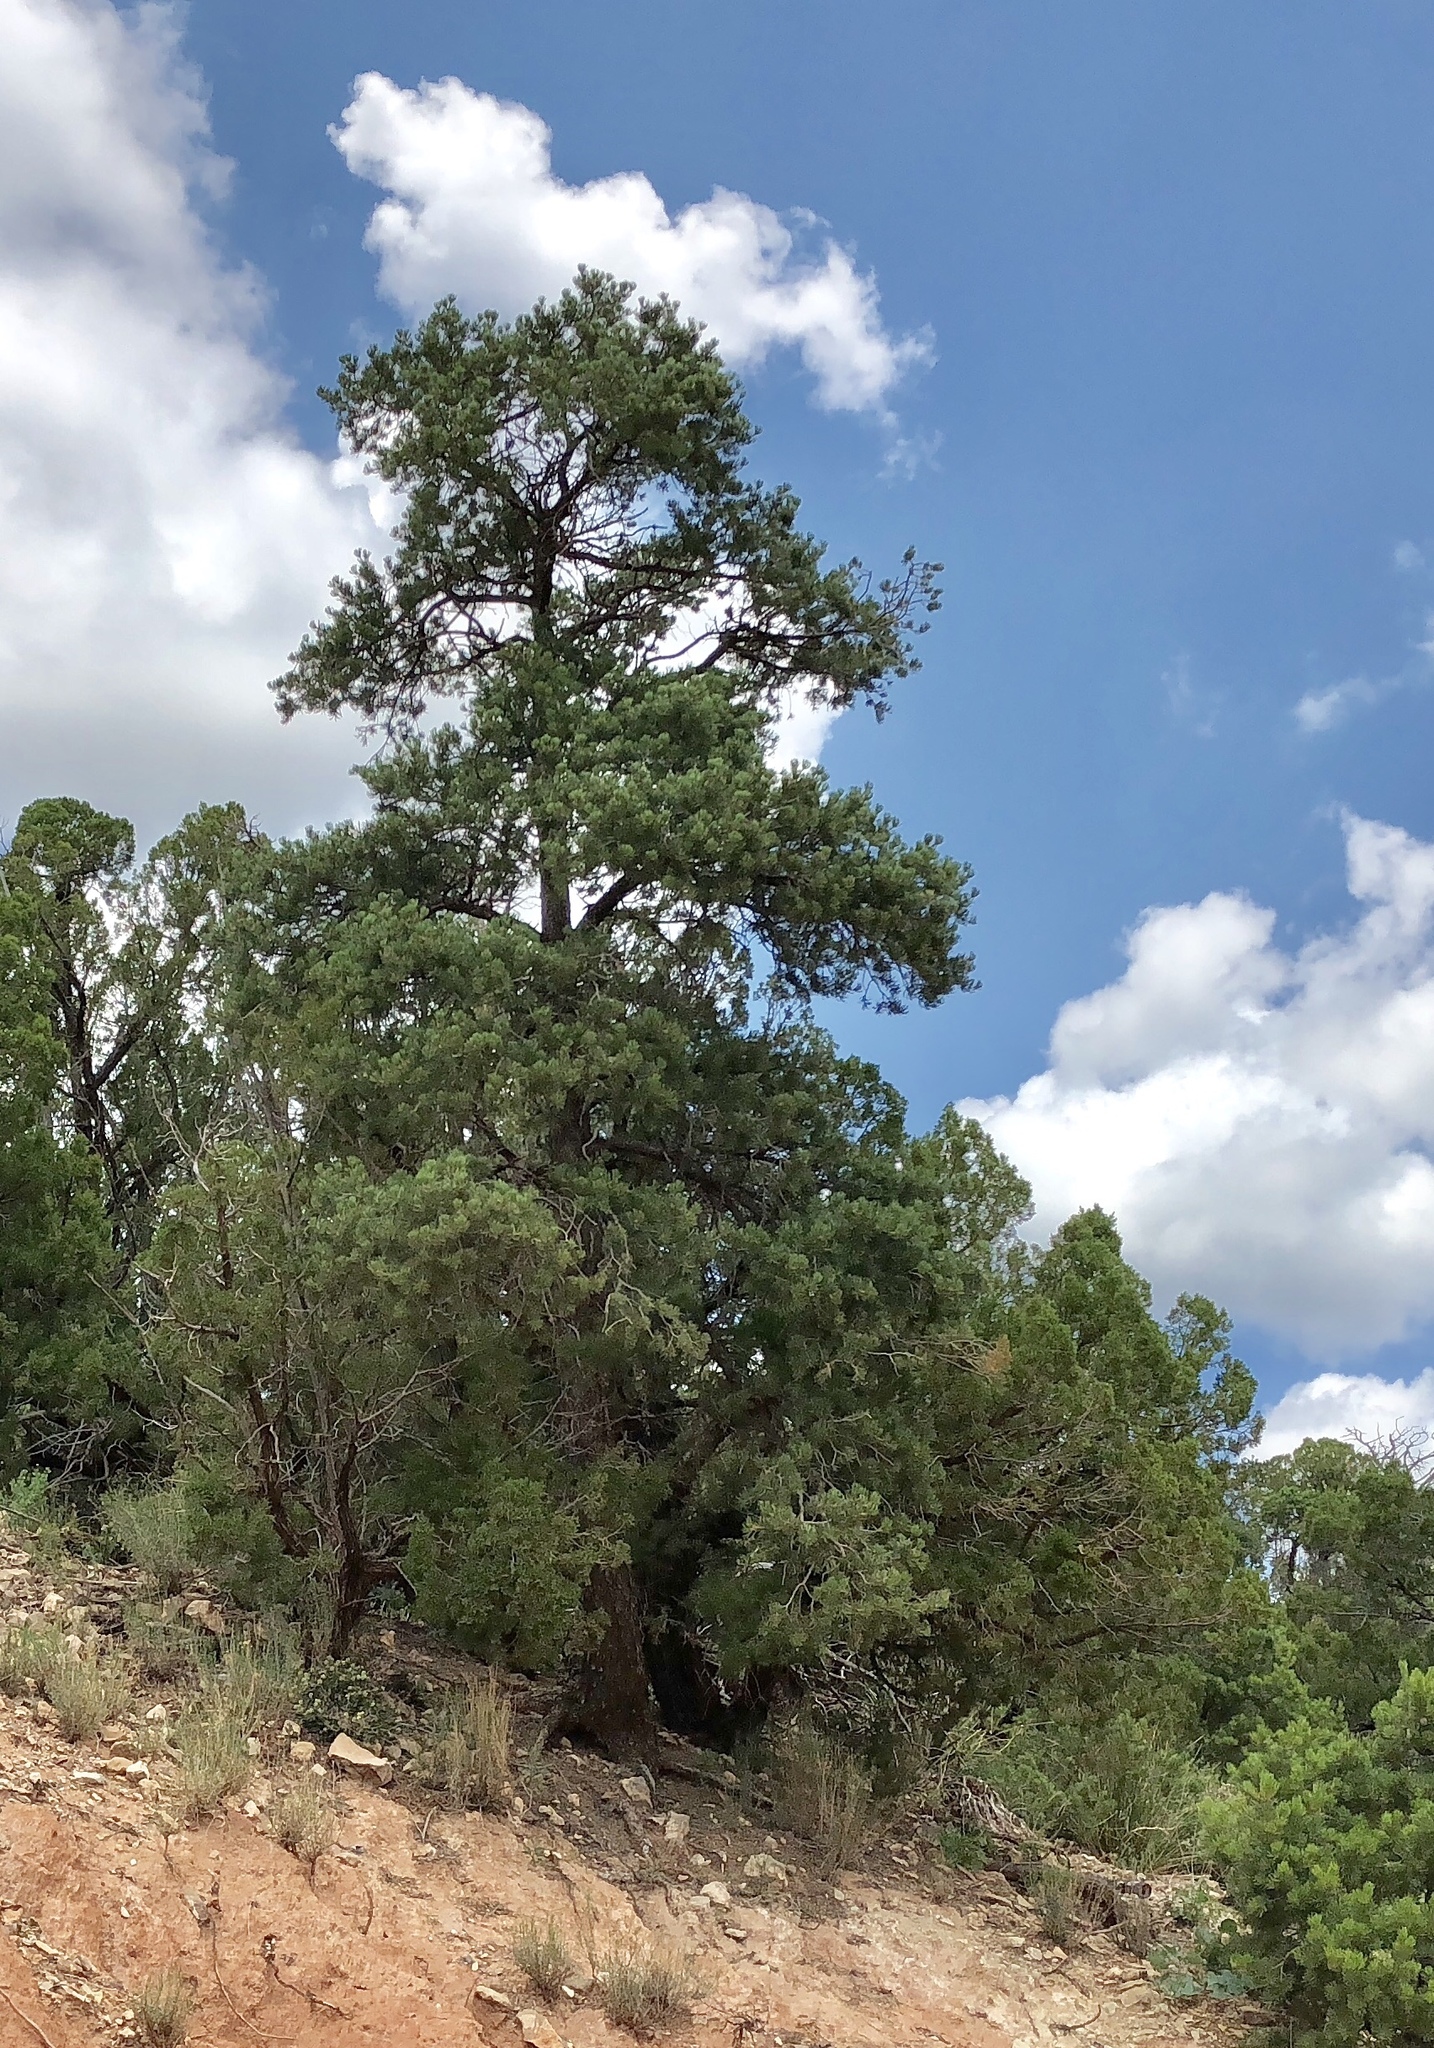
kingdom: Plantae
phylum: Tracheophyta
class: Pinopsida
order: Pinales
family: Pinaceae
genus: Pinus
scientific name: Pinus edulis
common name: Colorado pinyon
